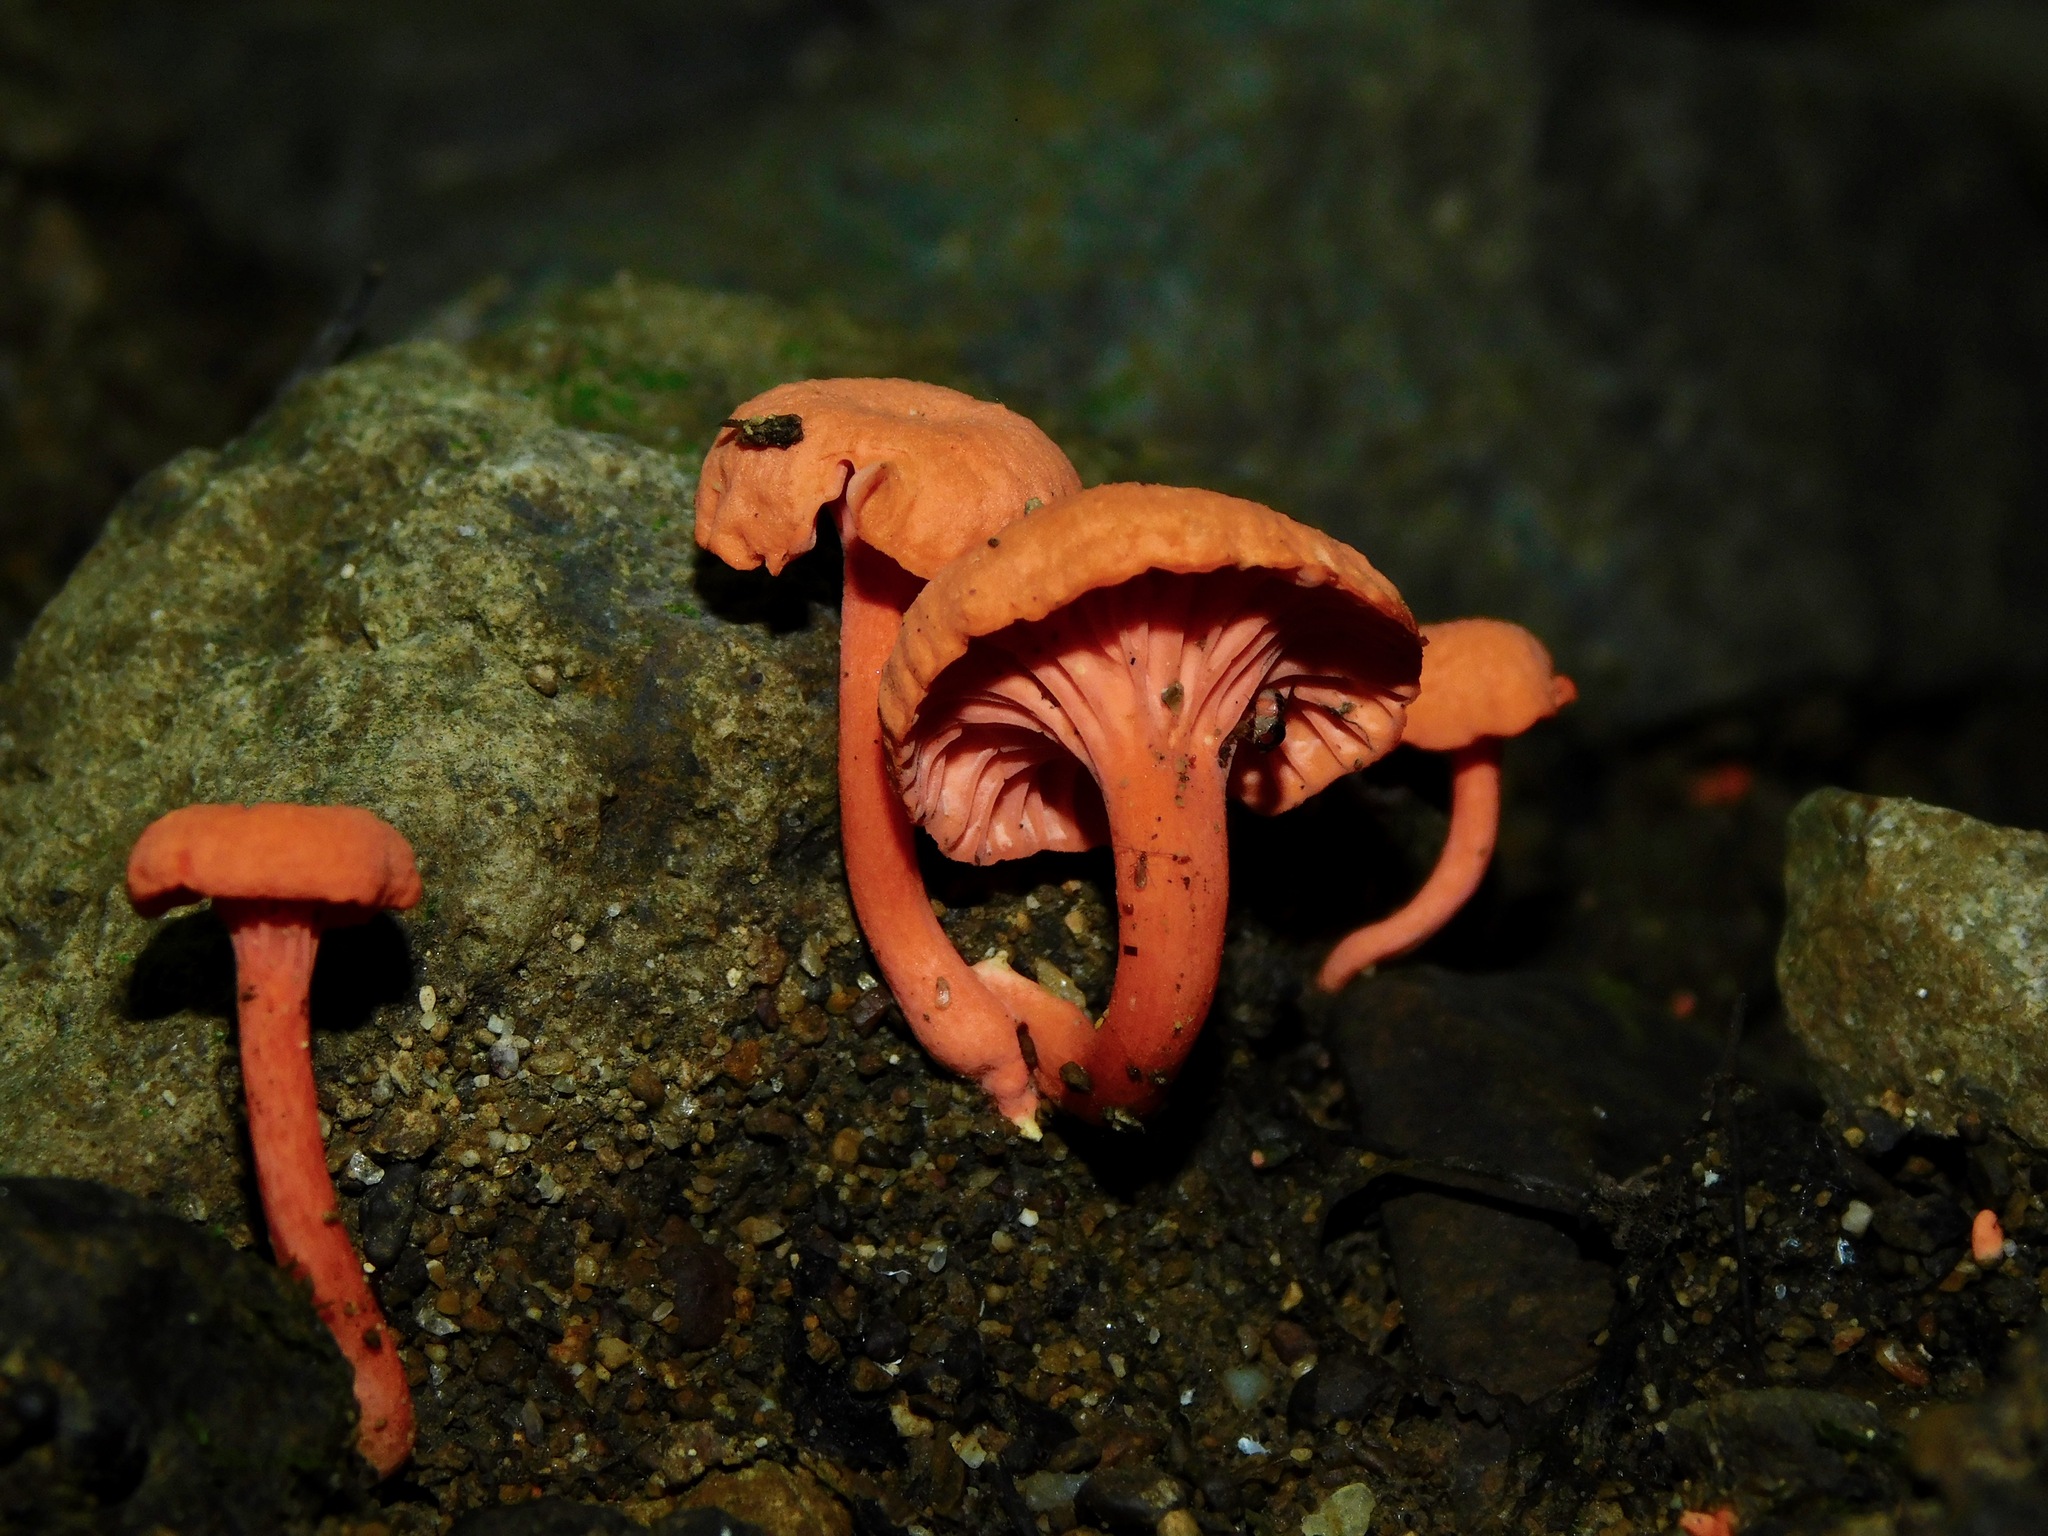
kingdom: Fungi
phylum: Basidiomycota
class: Agaricomycetes
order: Cantharellales
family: Hydnaceae
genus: Cantharellus
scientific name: Cantharellus cinnabarinus
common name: Cinnabar chanterelle
